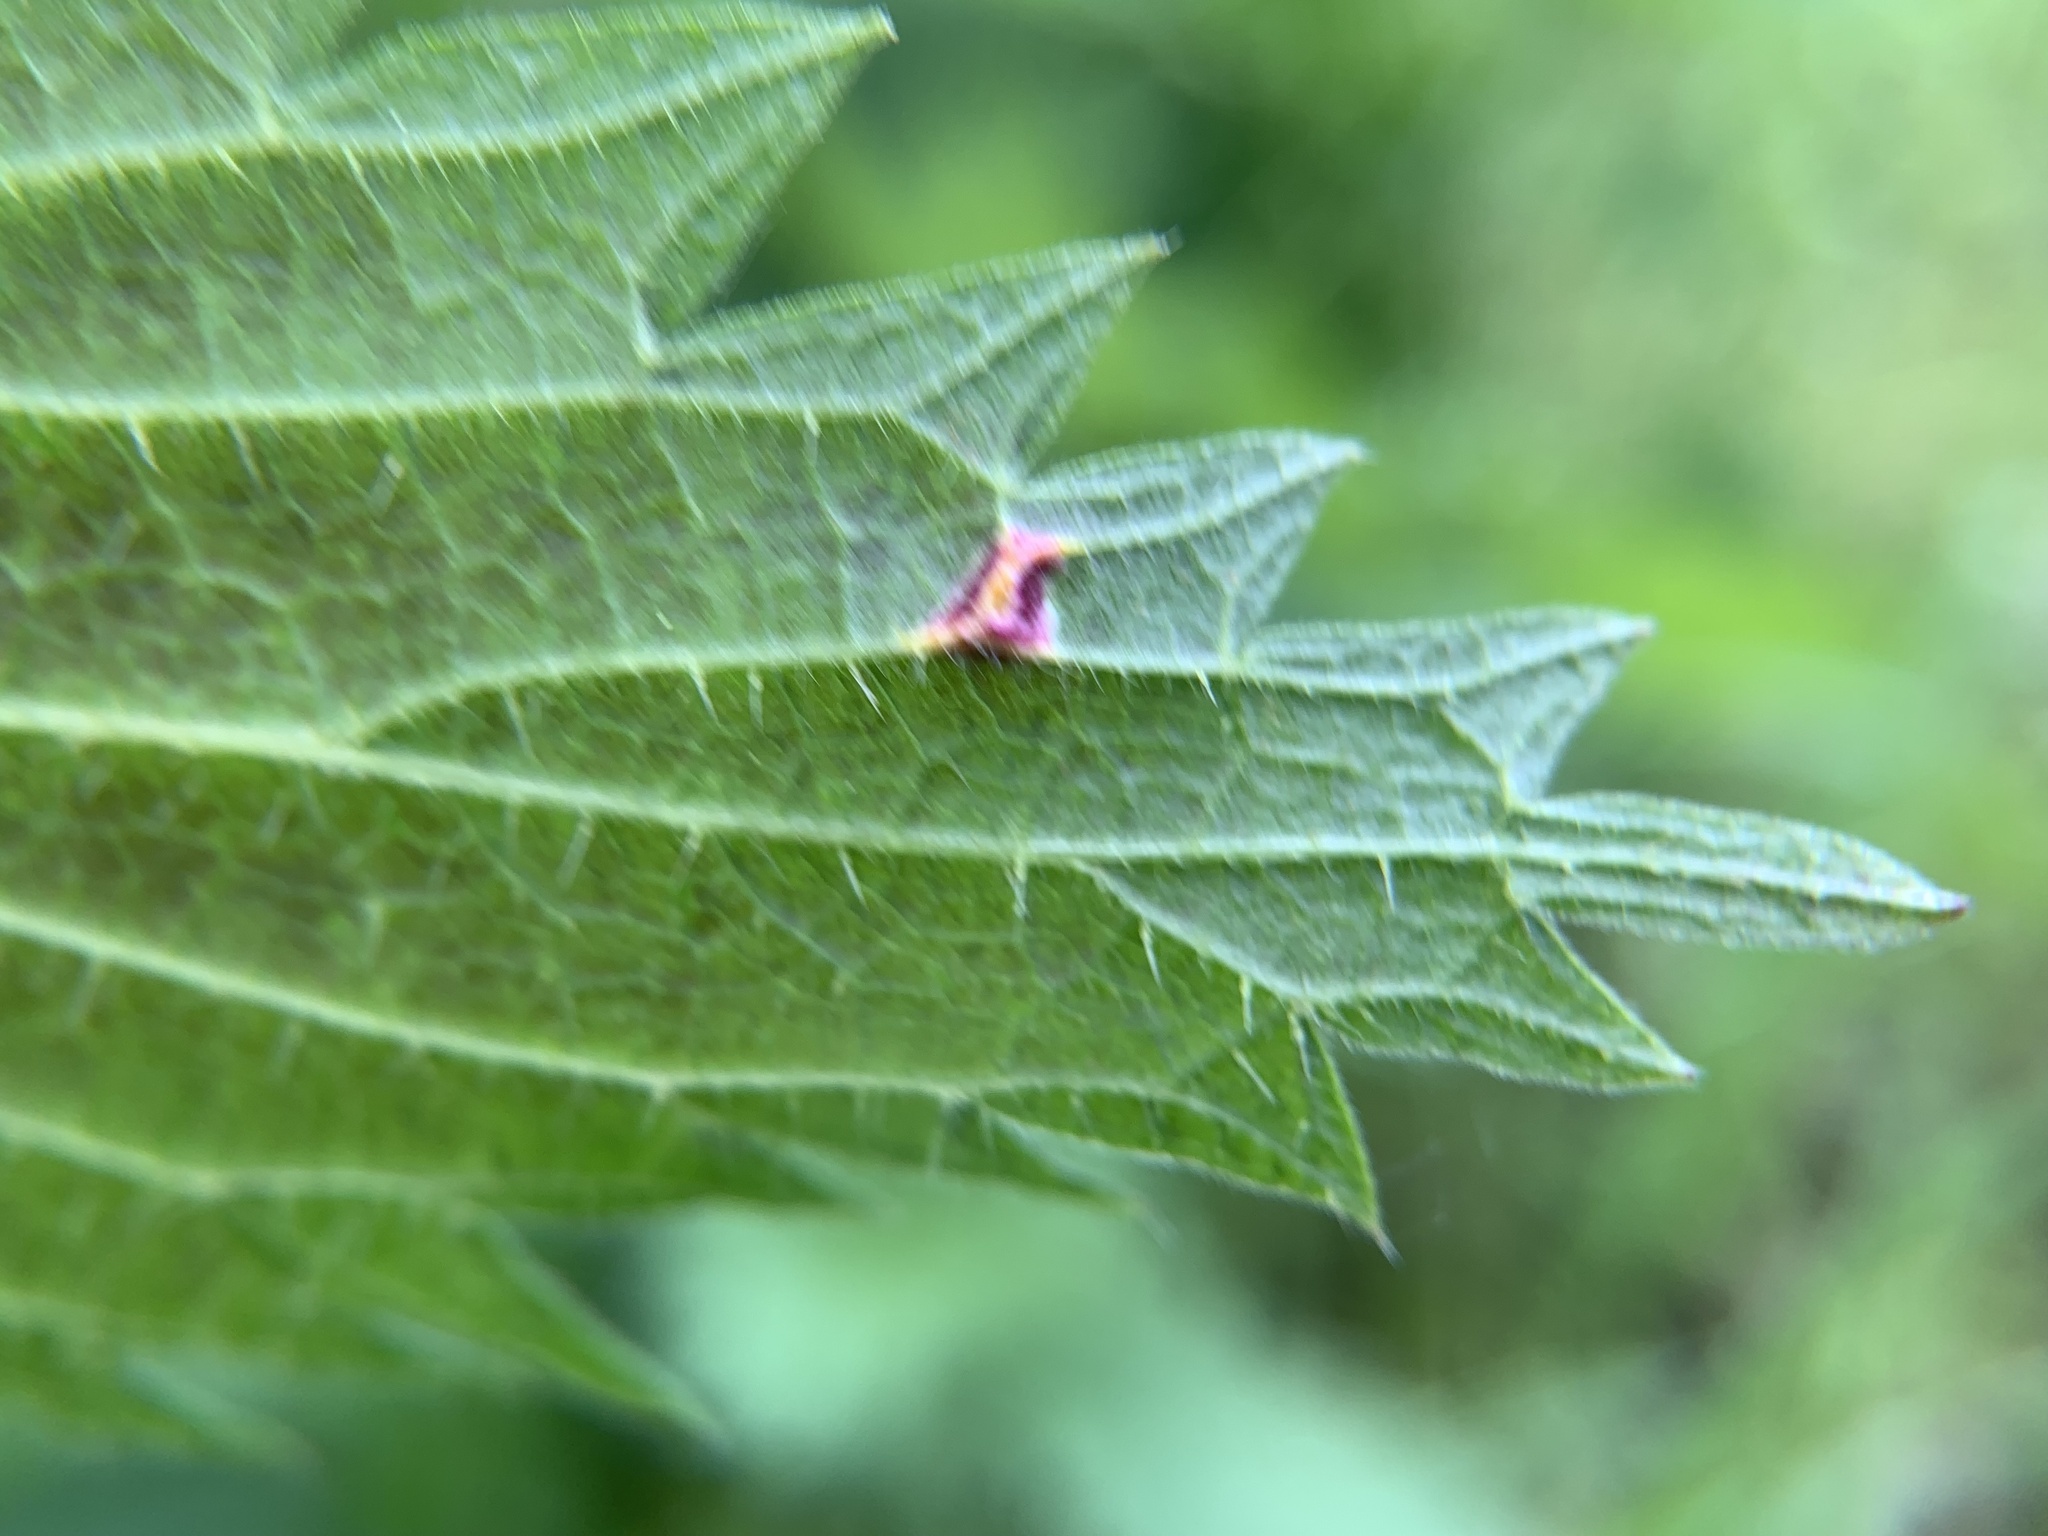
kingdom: Fungi
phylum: Basidiomycota
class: Pucciniomycetes
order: Pucciniales
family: Pucciniaceae
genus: Puccinia
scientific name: Puccinia urticata
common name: Nettle clustercup rust fungus
